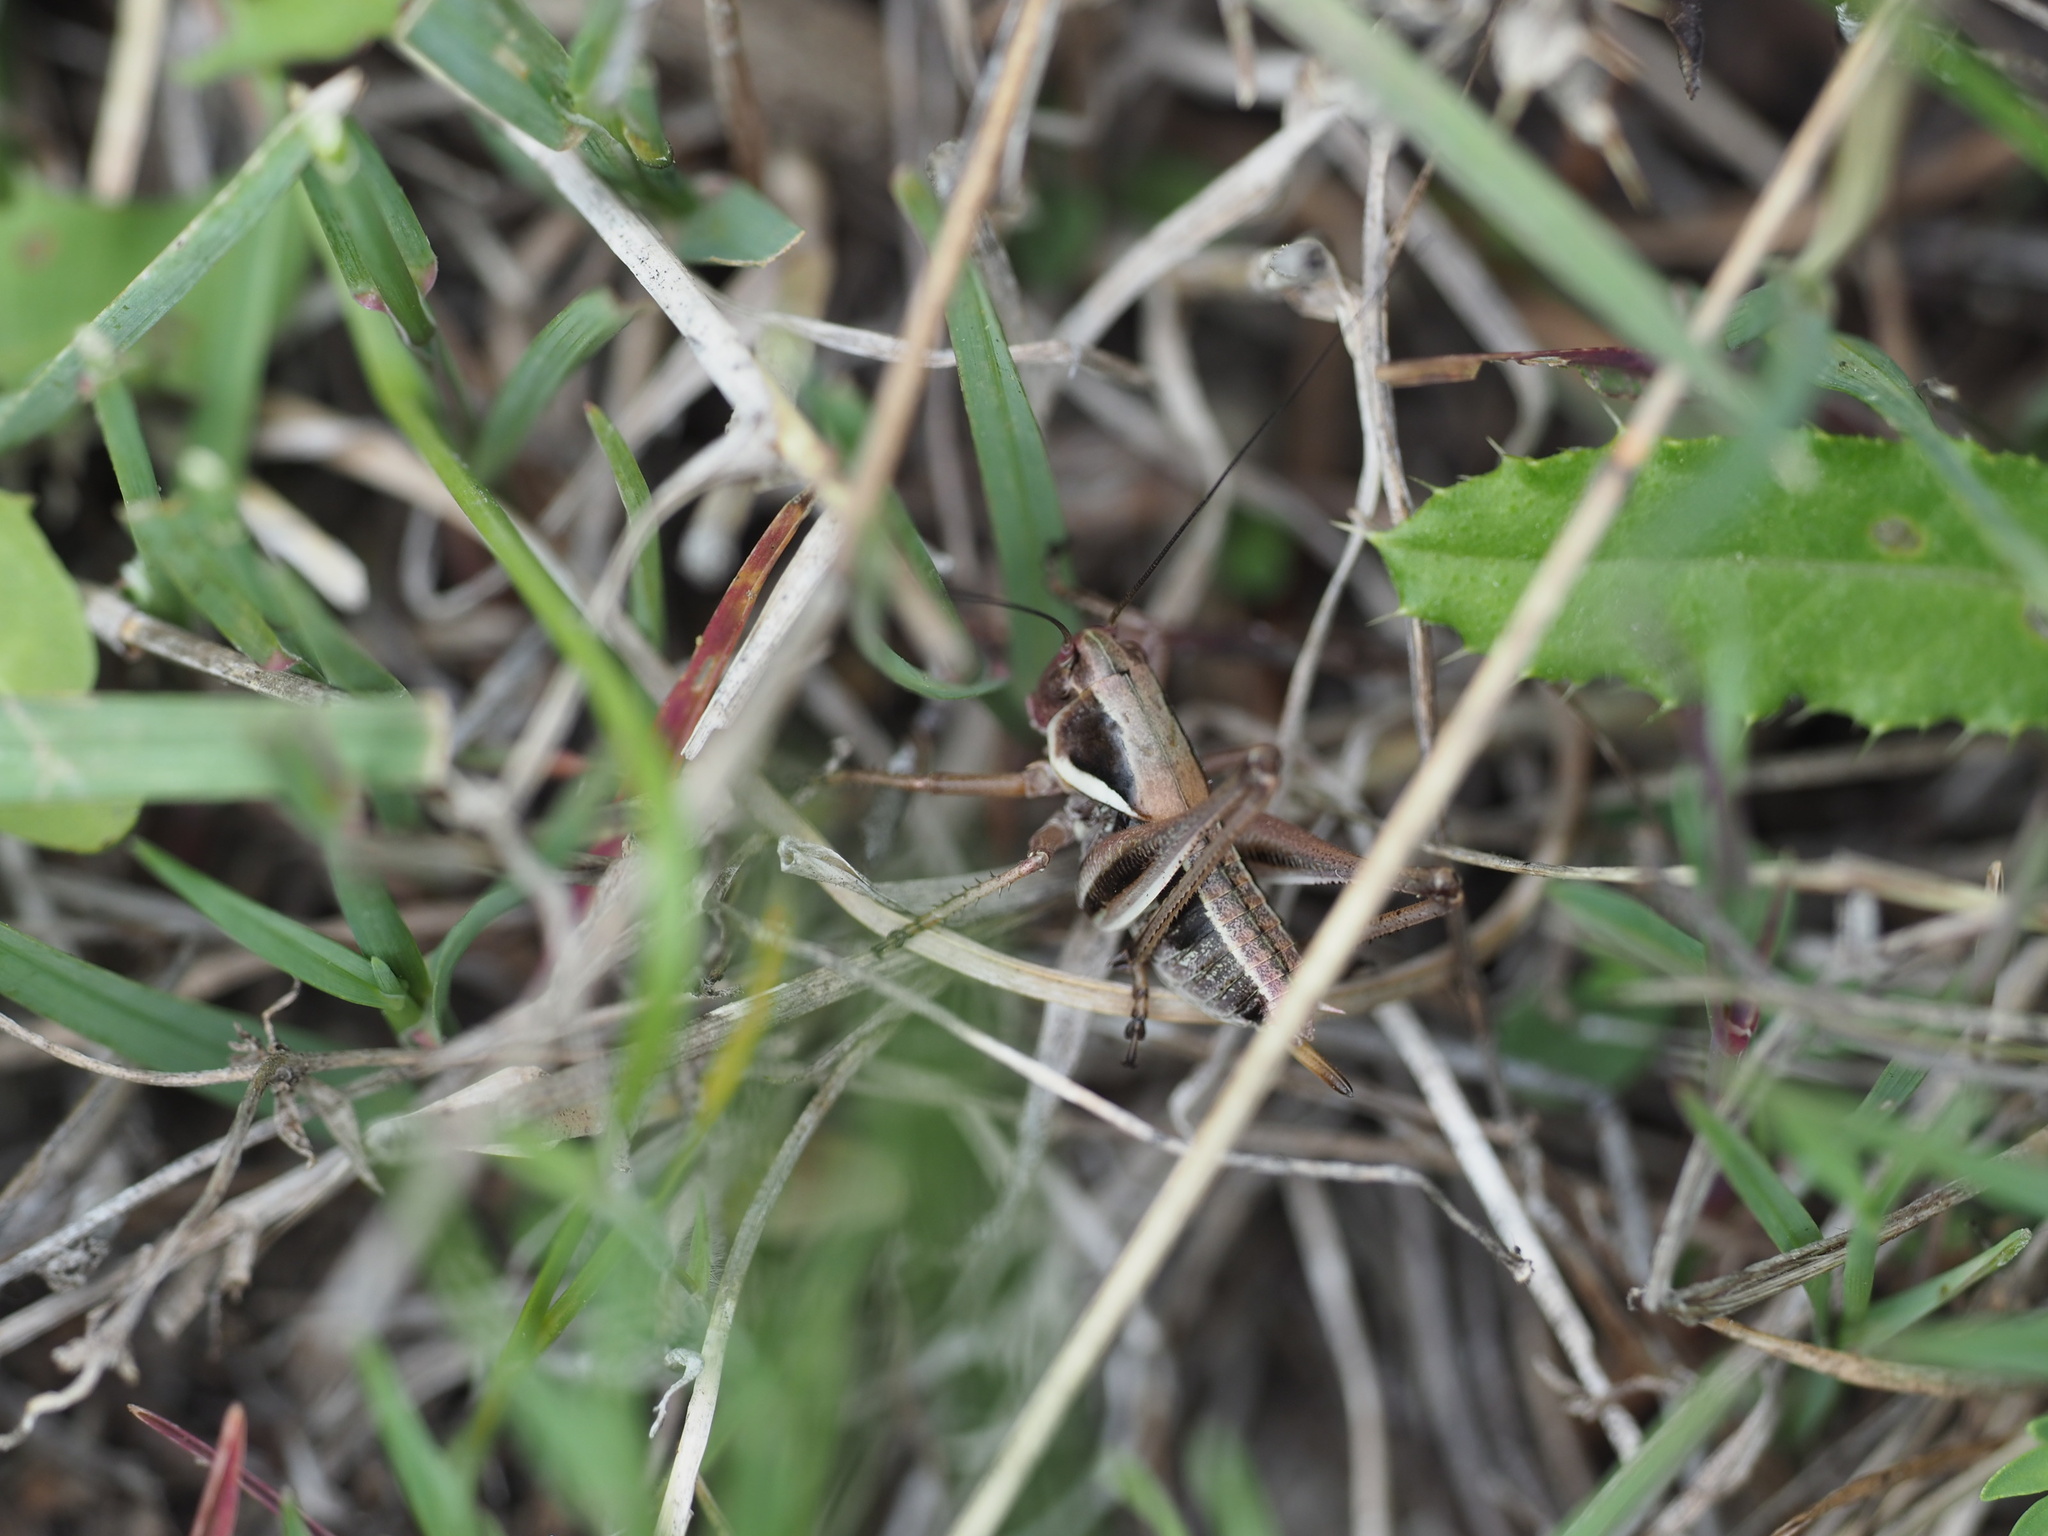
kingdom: Animalia
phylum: Arthropoda
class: Insecta
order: Orthoptera
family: Tettigoniidae
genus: Anabrus
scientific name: Anabrus longipes
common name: Long-legged anabrus
